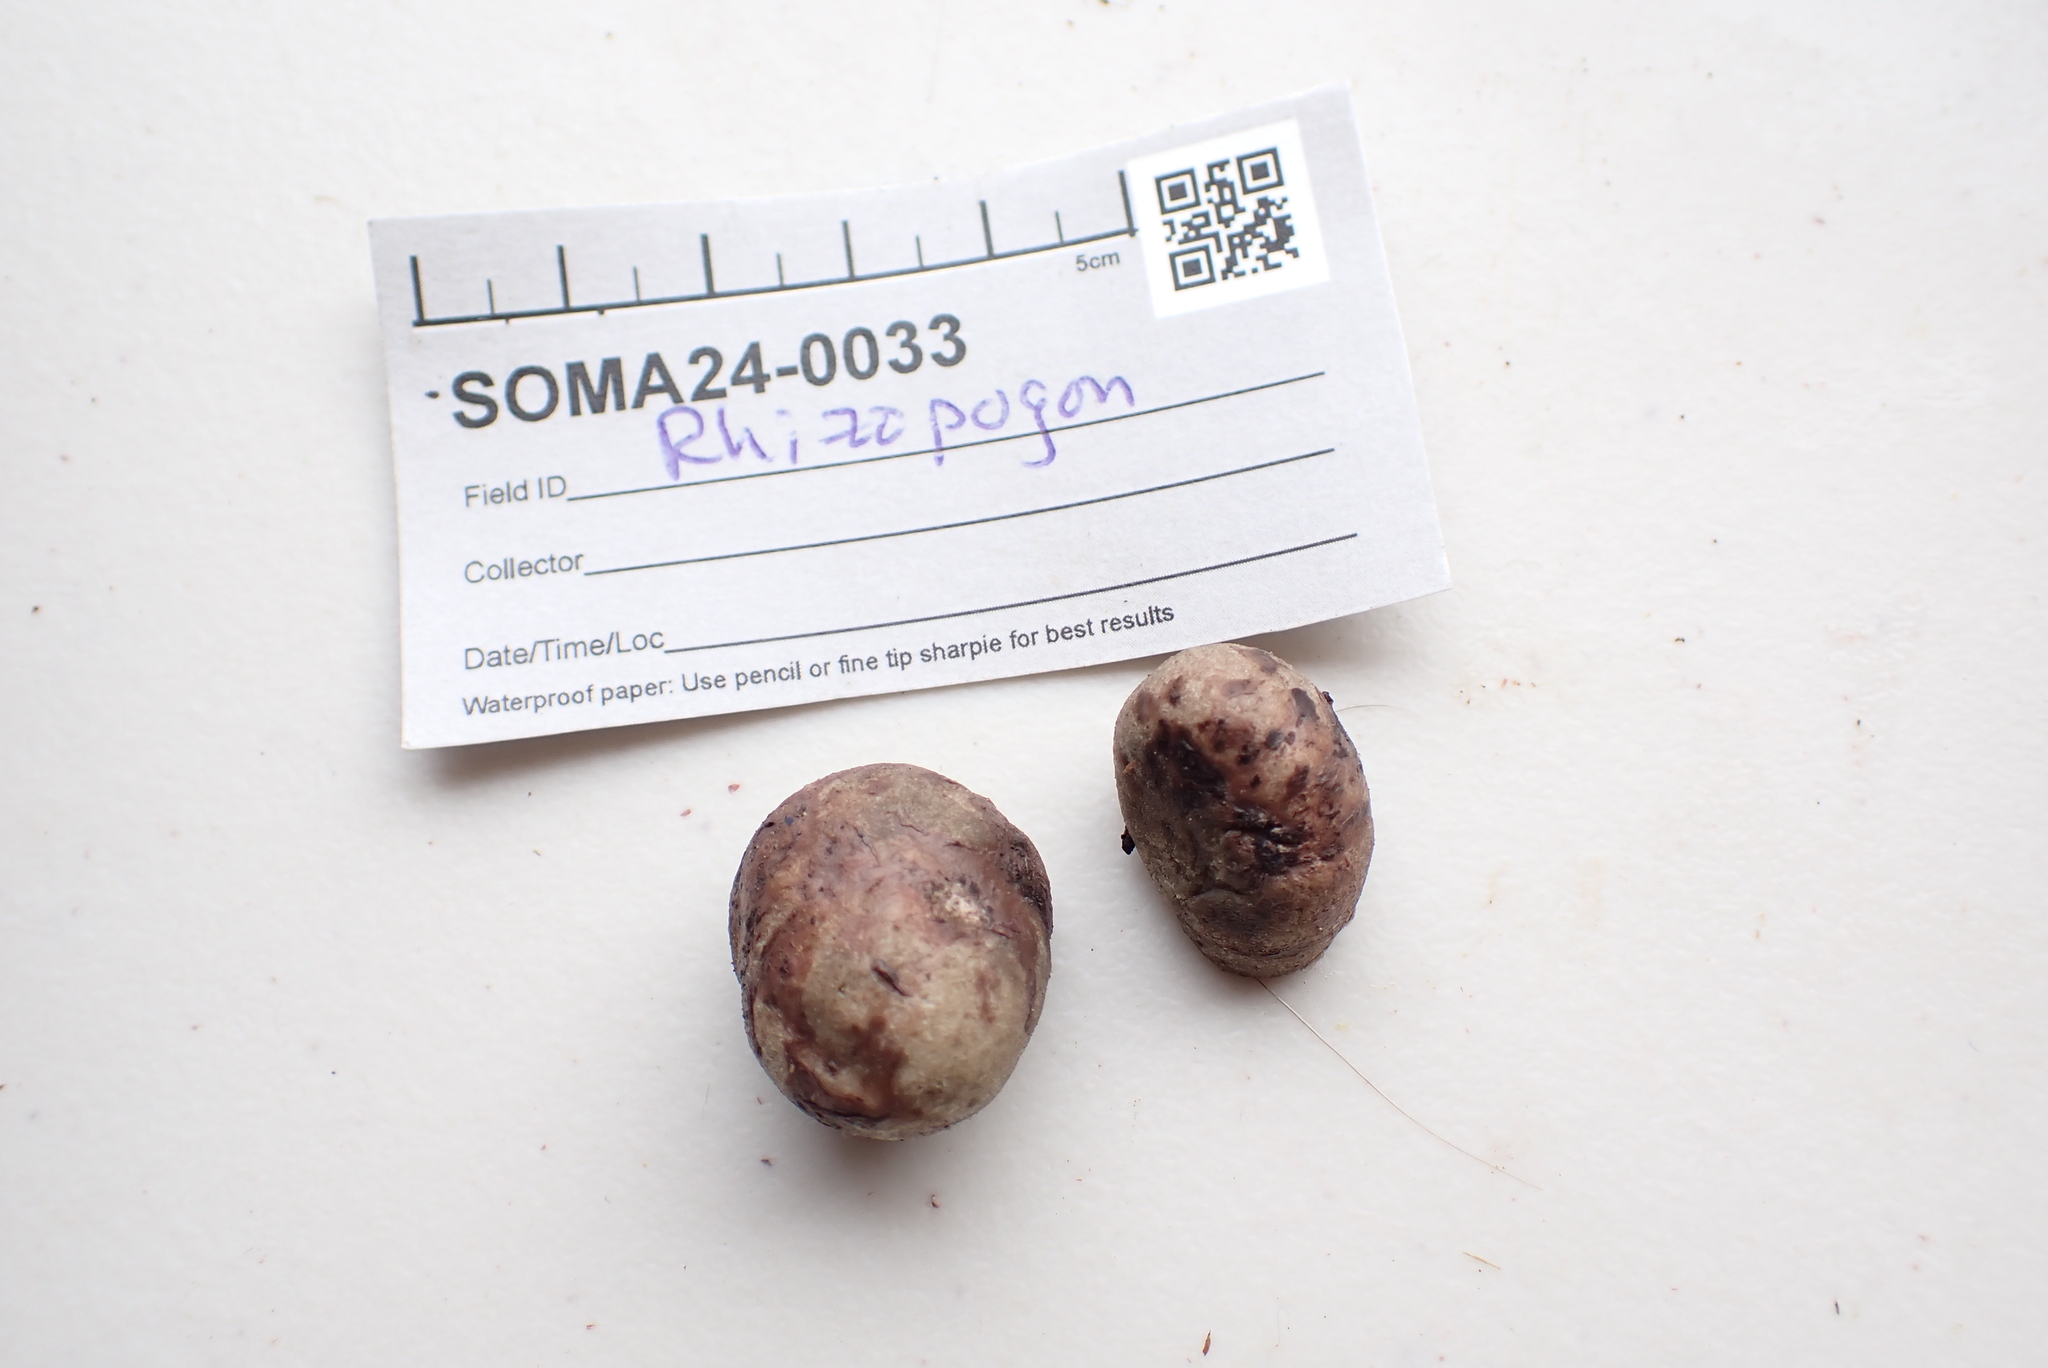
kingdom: Fungi
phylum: Basidiomycota
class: Agaricomycetes
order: Boletales
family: Rhizopogonaceae
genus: Rhizopogon
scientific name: Rhizopogon parksii
